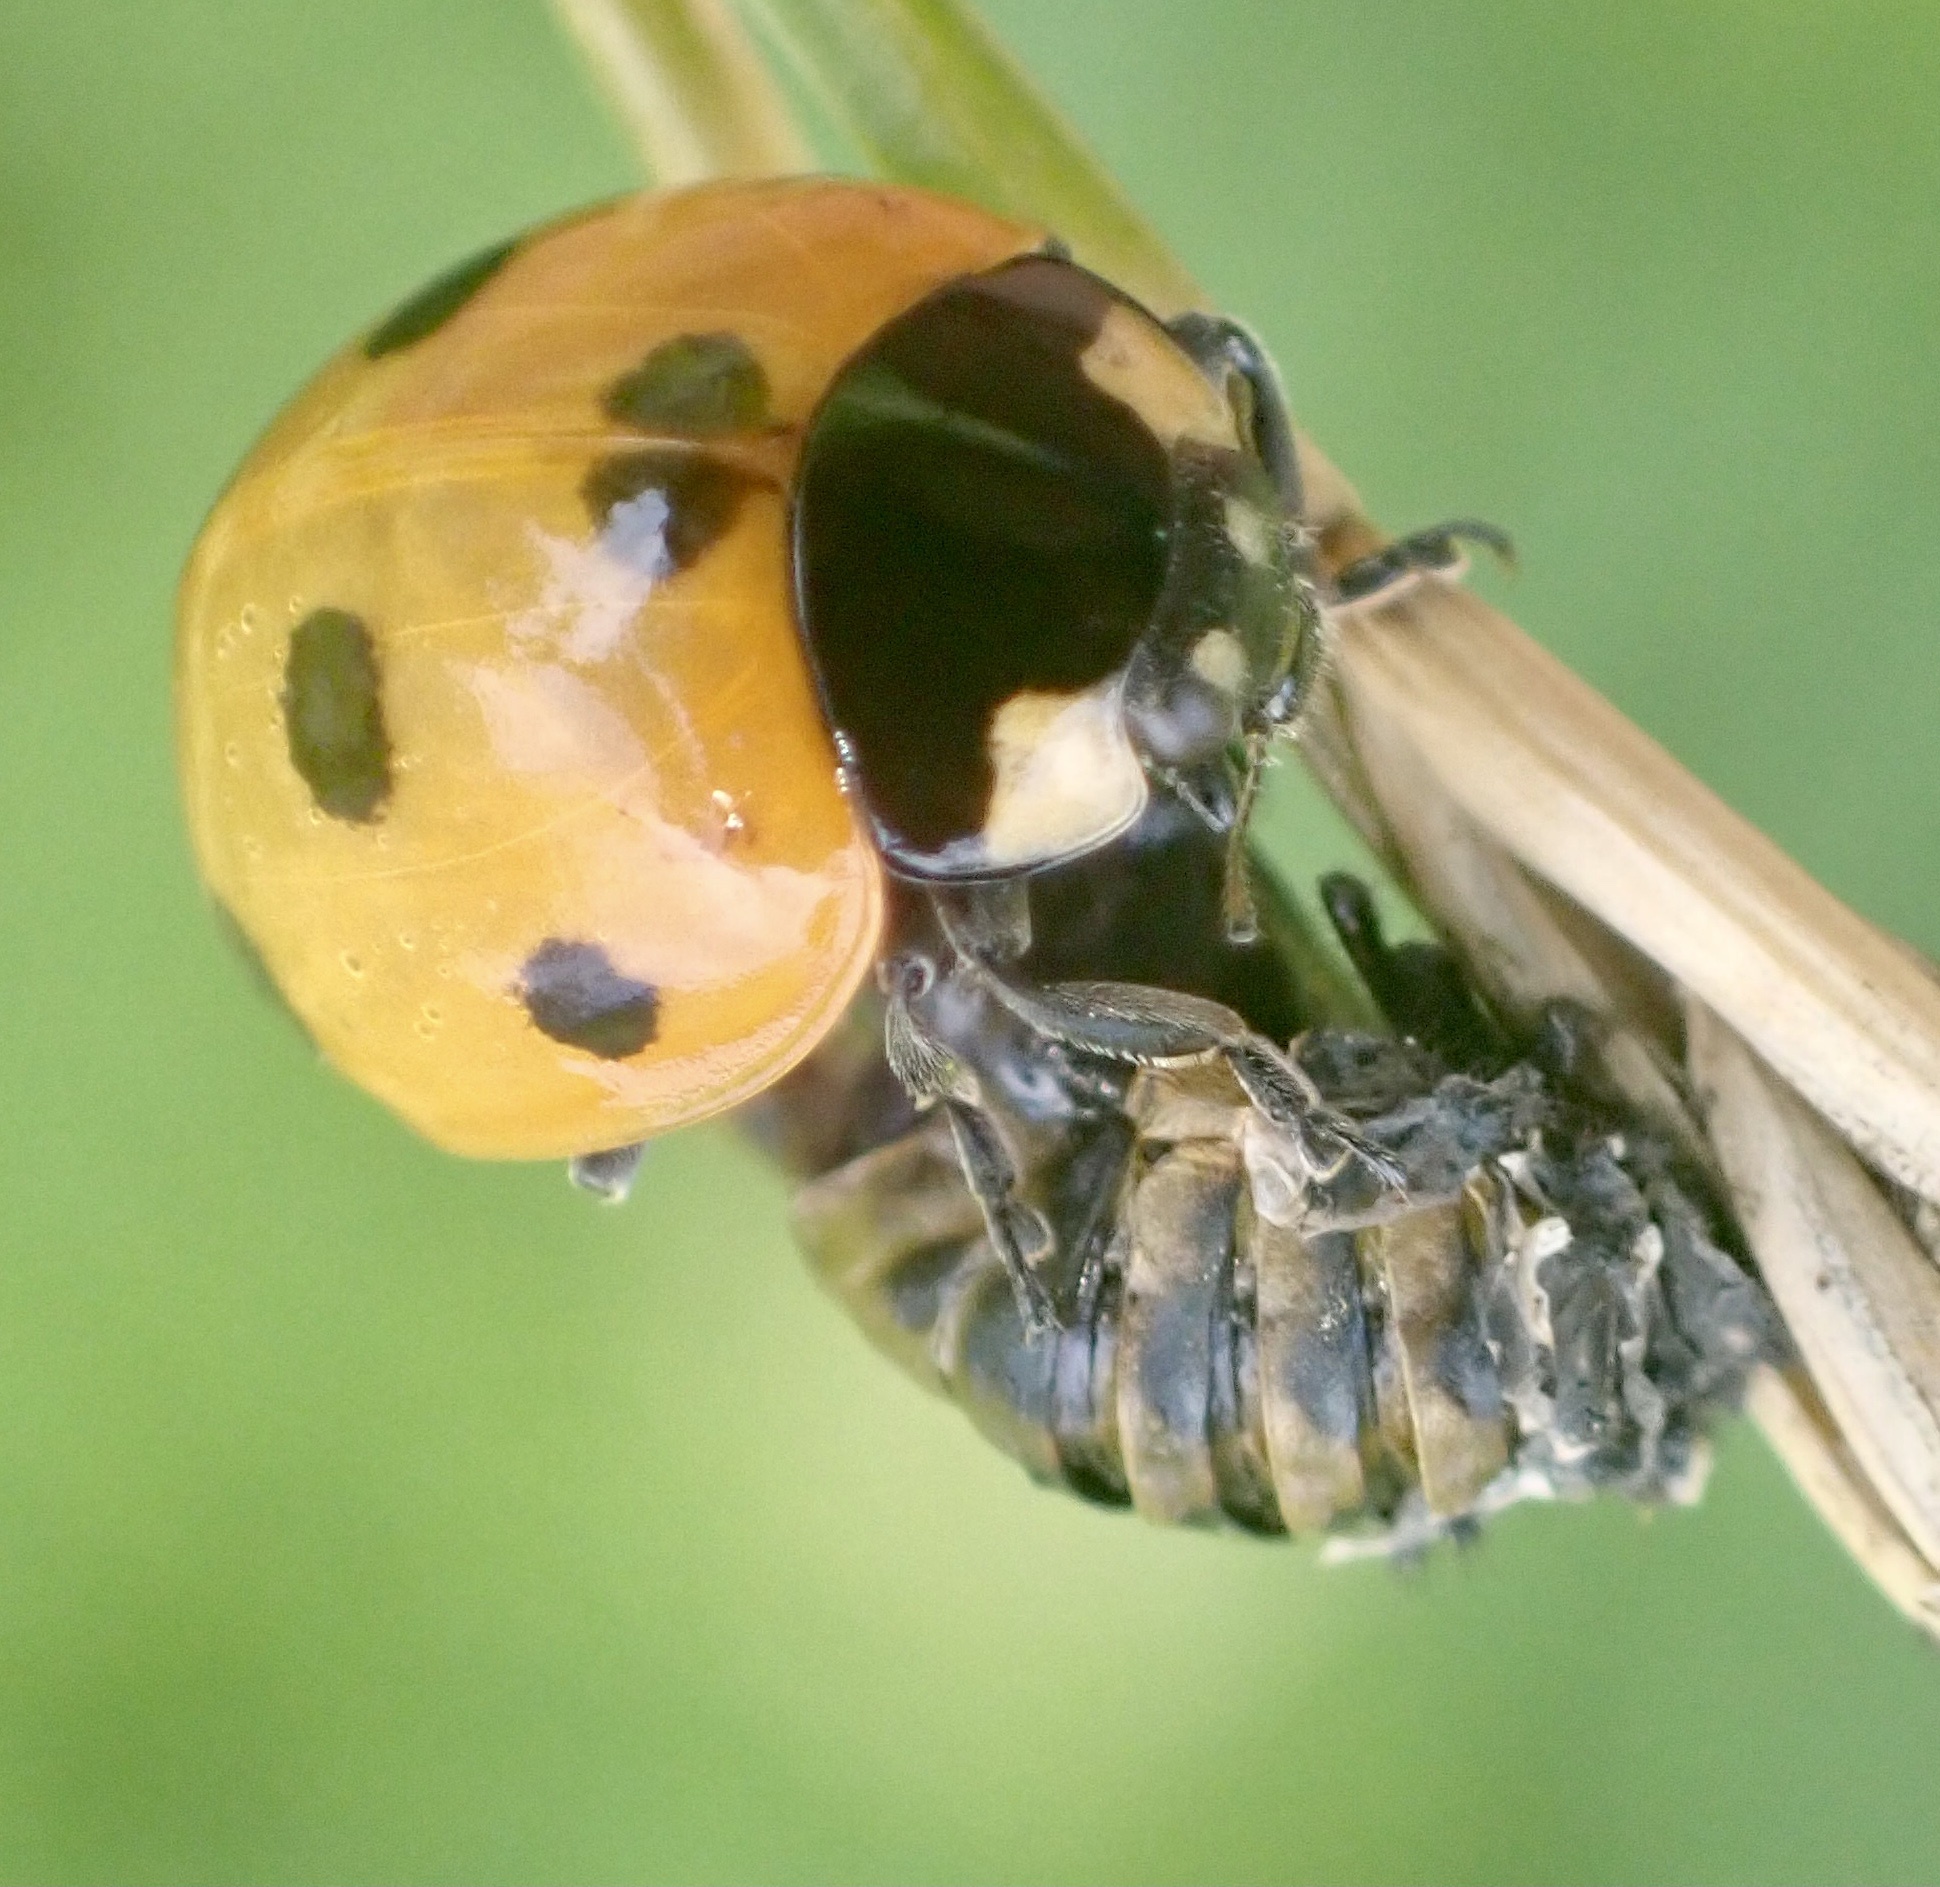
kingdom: Animalia
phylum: Arthropoda
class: Insecta
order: Coleoptera
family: Coccinellidae
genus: Coccinella
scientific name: Coccinella septempunctata
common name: Sevenspotted lady beetle
